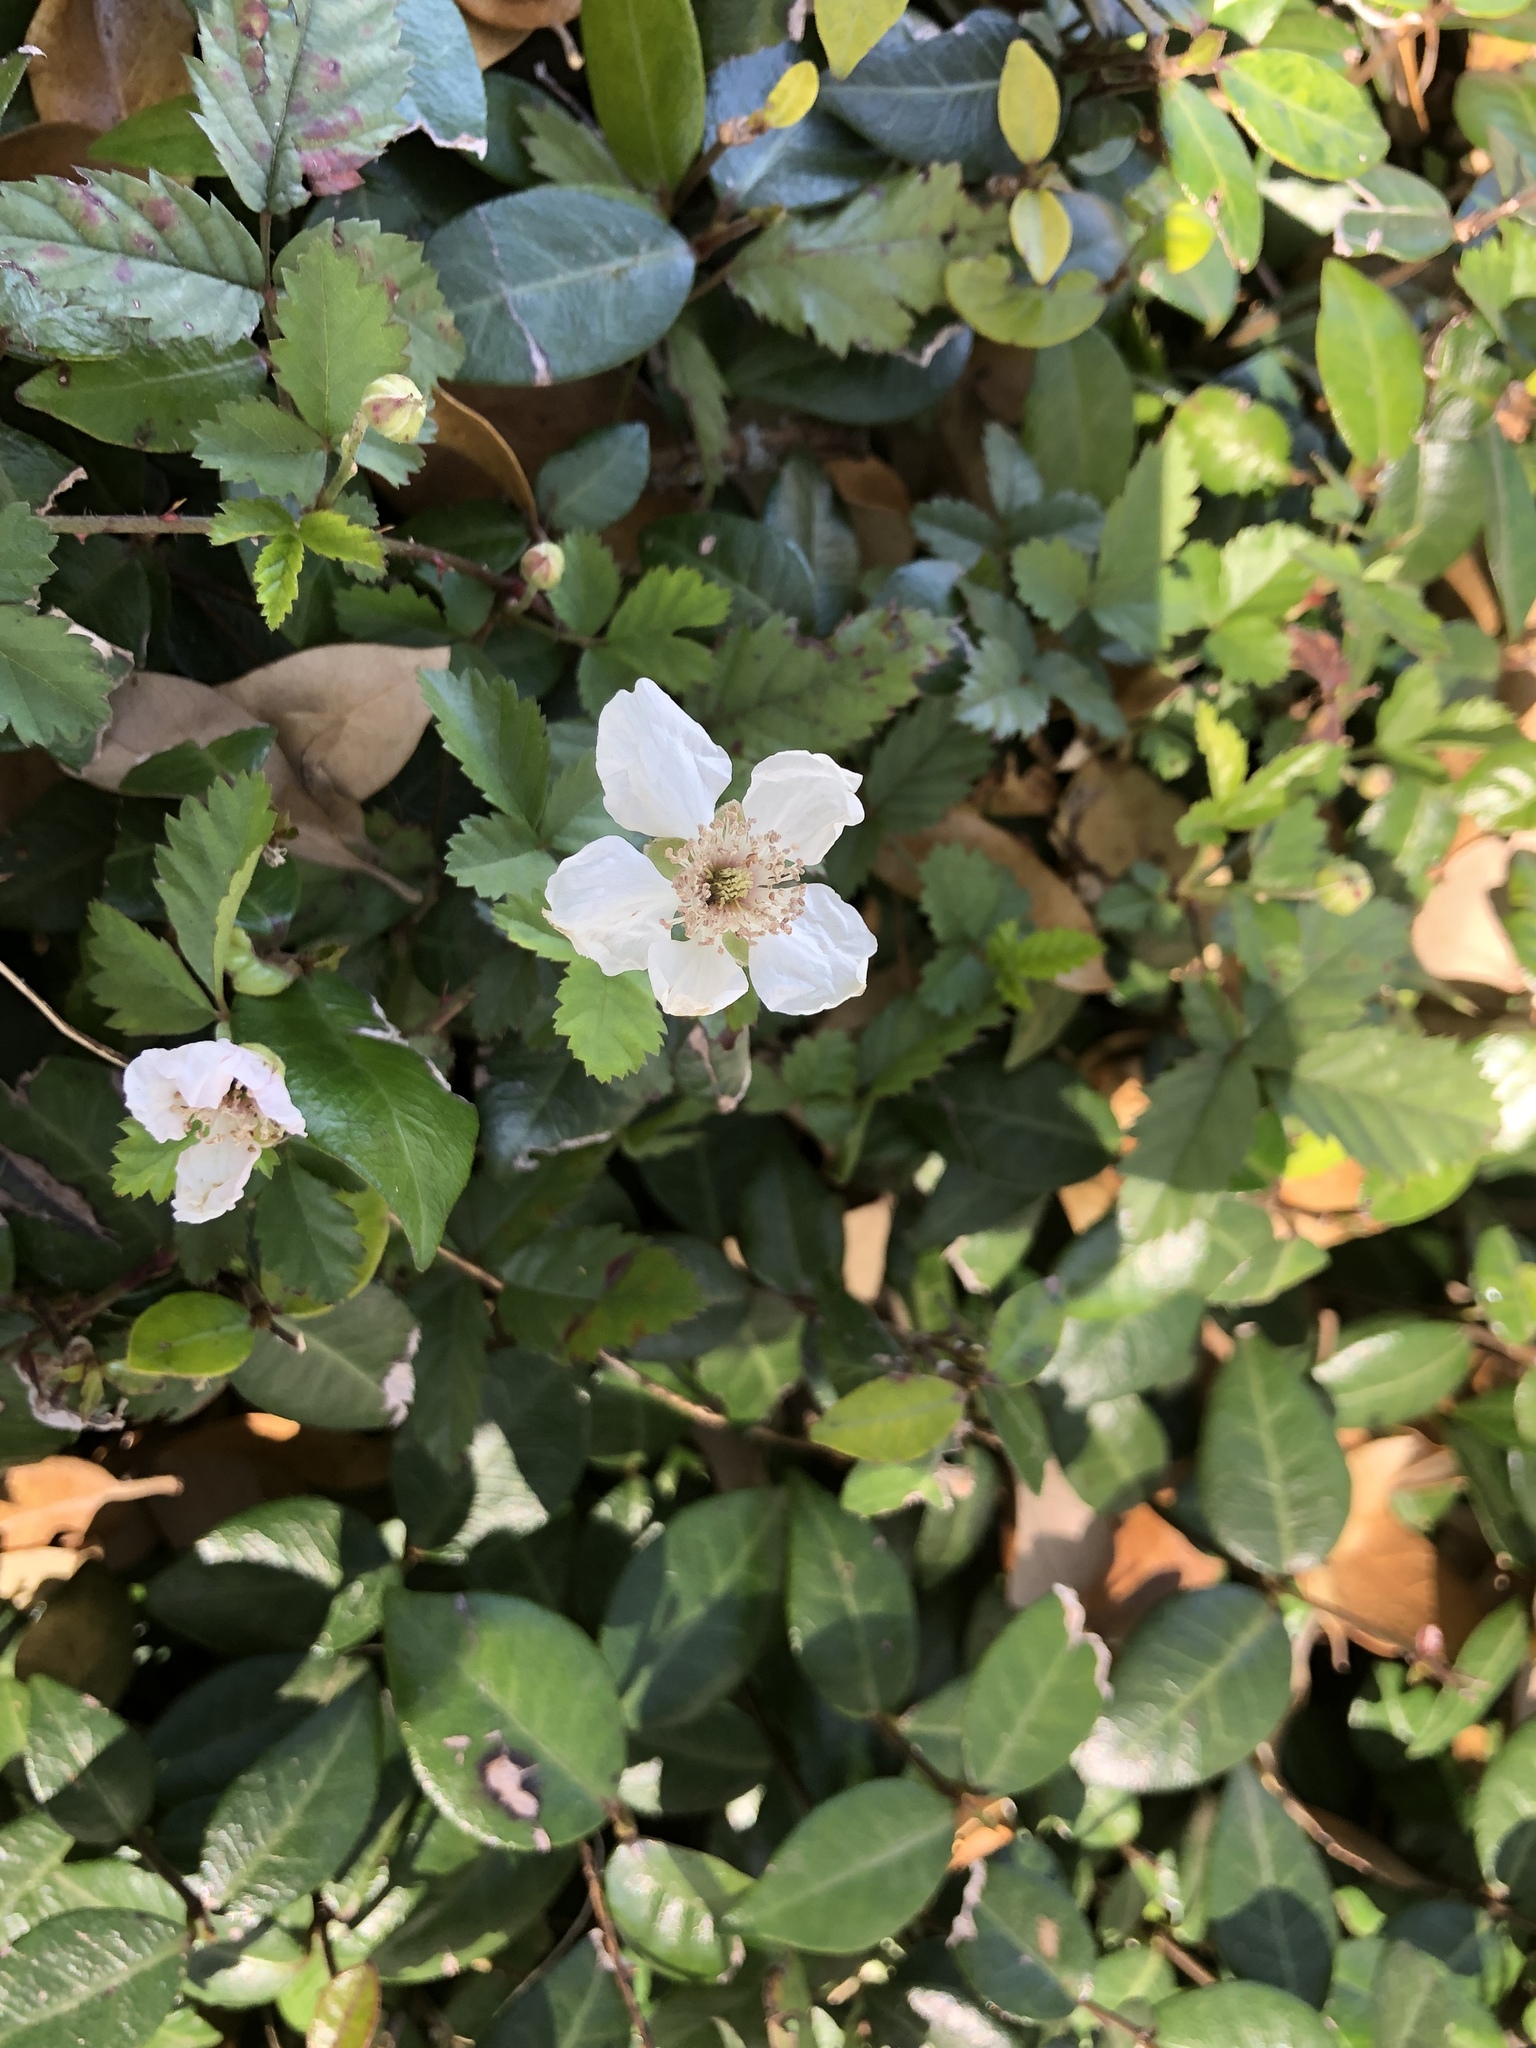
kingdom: Plantae
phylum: Tracheophyta
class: Magnoliopsida
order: Rosales
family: Rosaceae
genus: Rubus
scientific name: Rubus trivialis
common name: Southern dewberry
